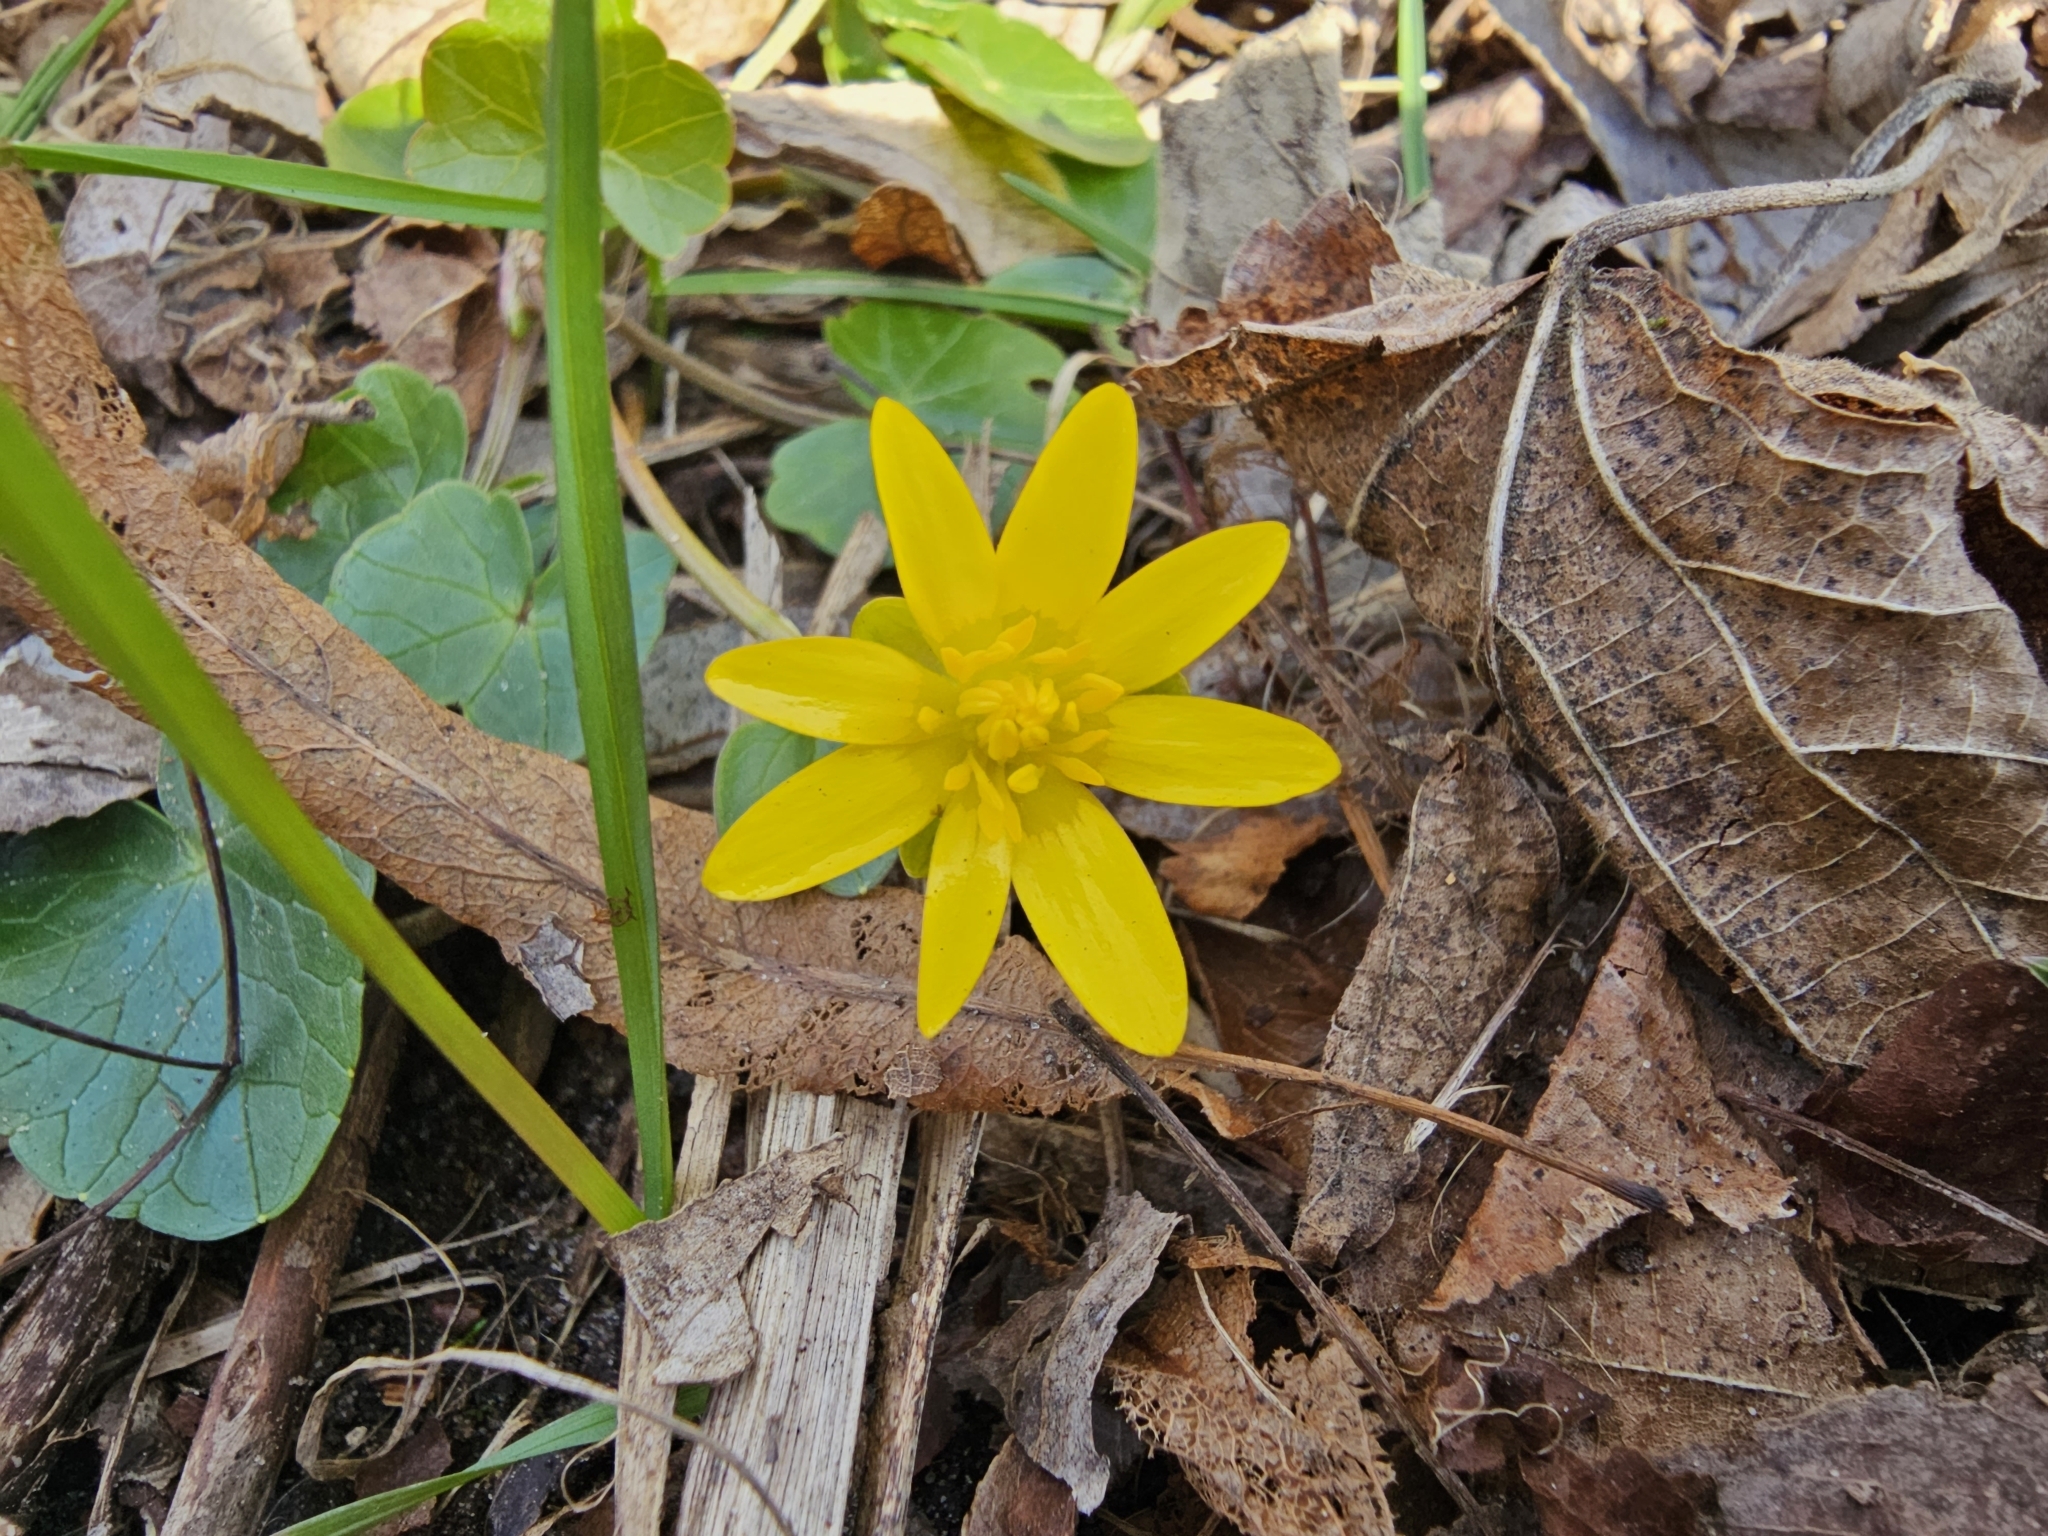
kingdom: Plantae
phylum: Tracheophyta
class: Magnoliopsida
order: Ranunculales
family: Ranunculaceae
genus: Ficaria
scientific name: Ficaria verna
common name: Lesser celandine
